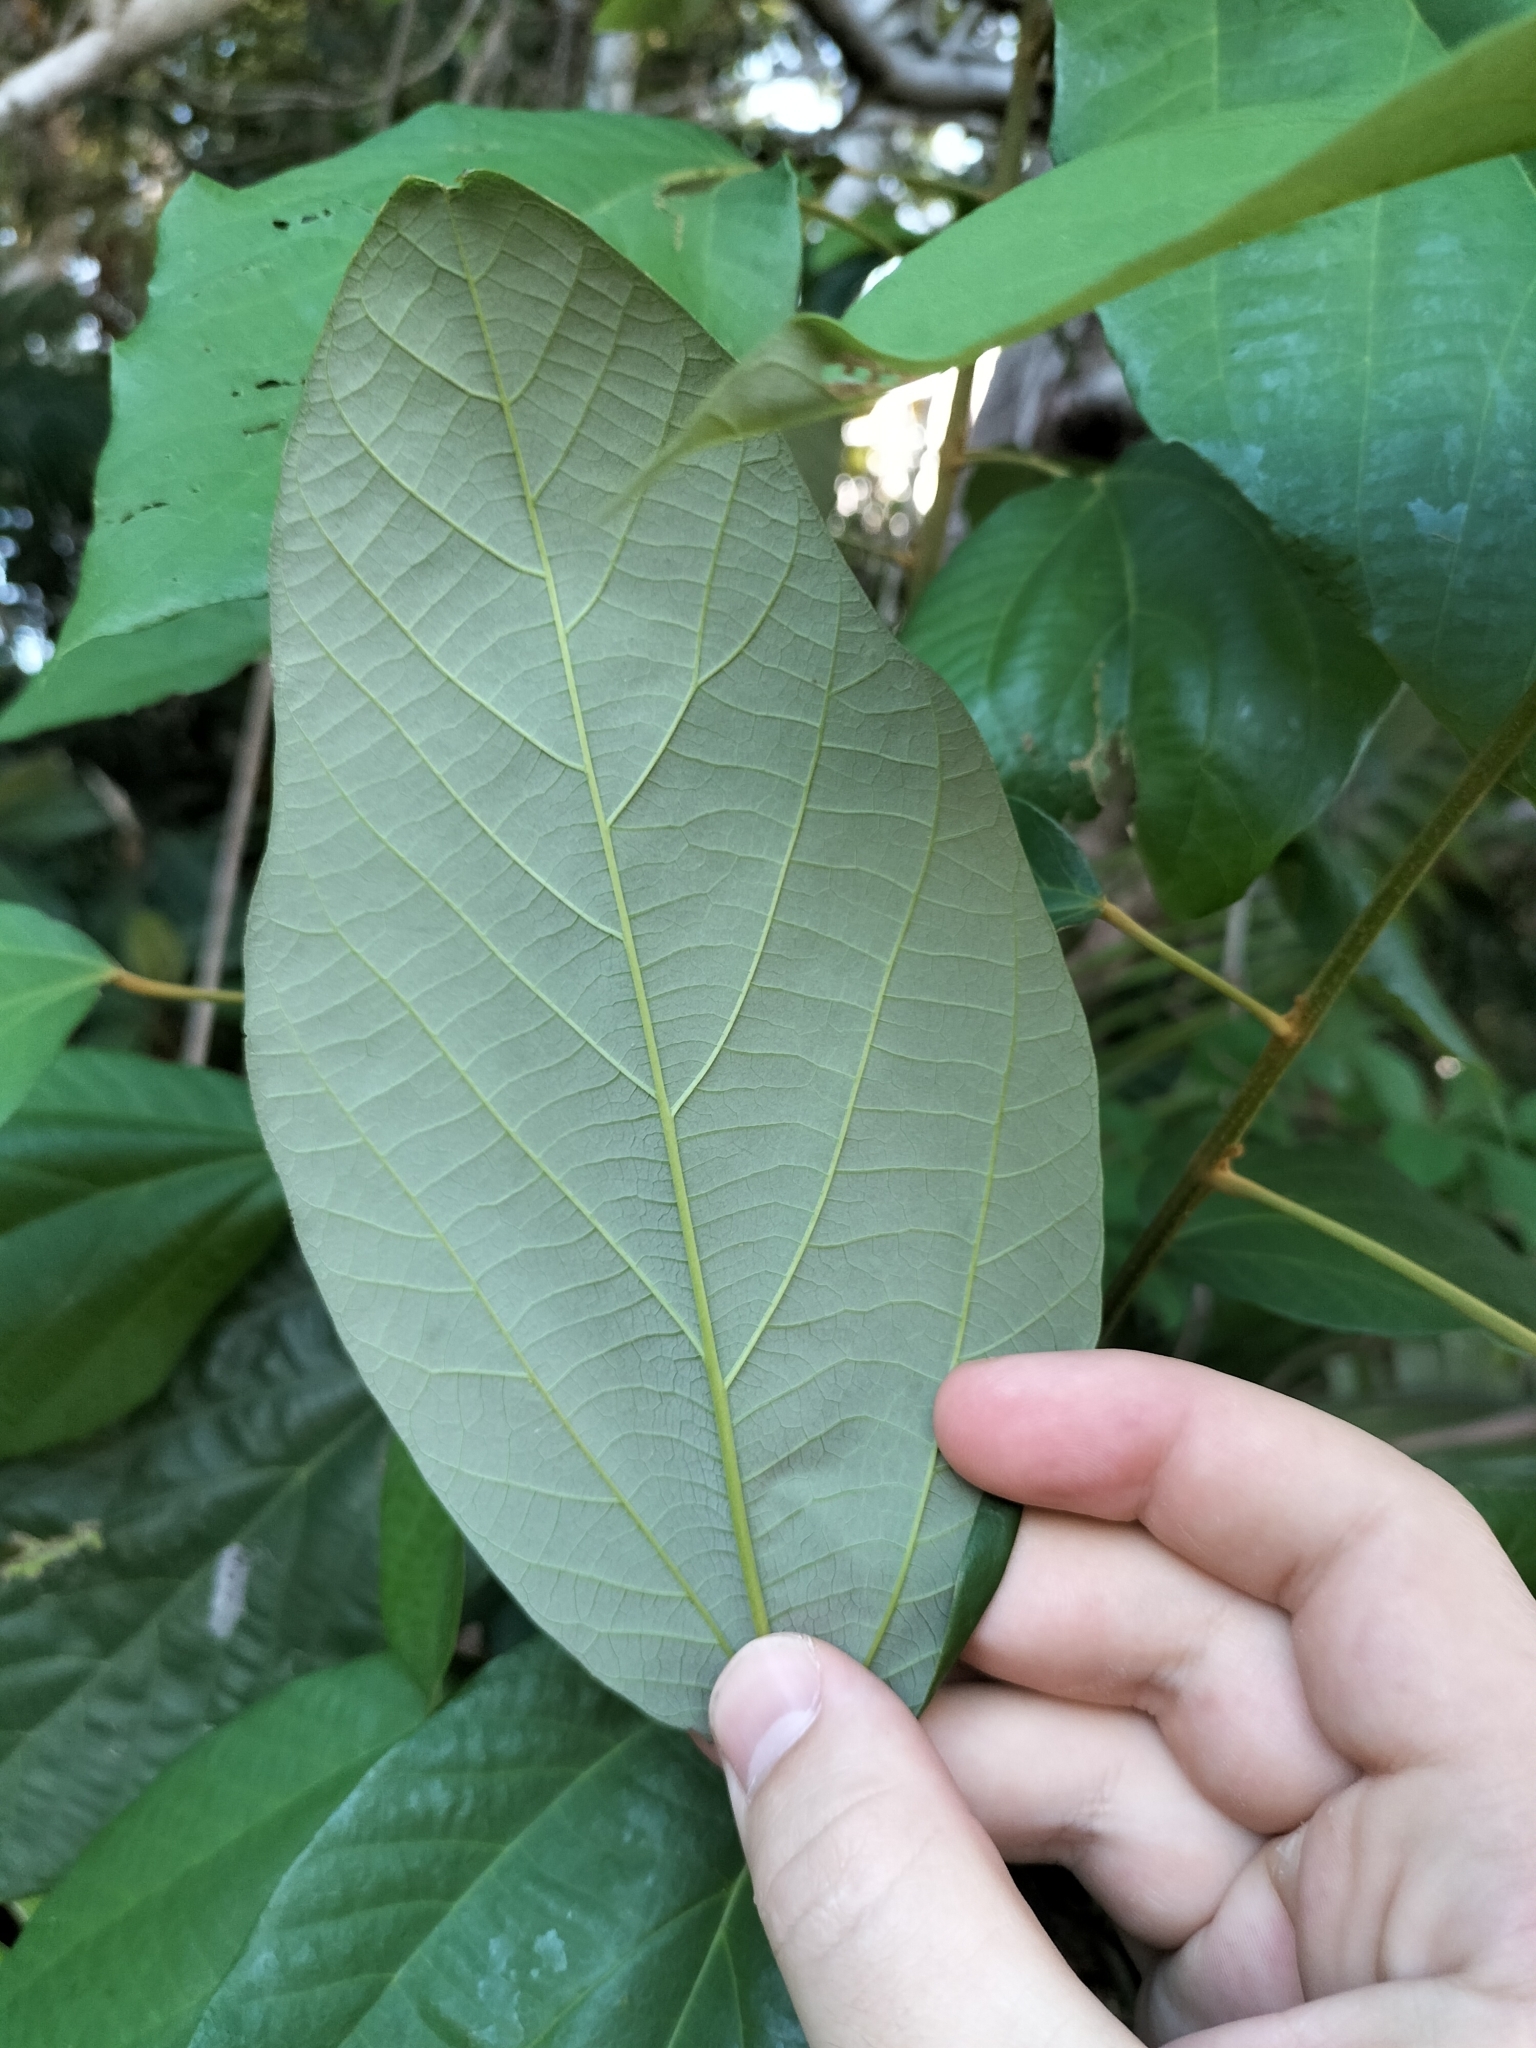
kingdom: Plantae
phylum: Tracheophyta
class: Magnoliopsida
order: Malpighiales
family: Euphorbiaceae
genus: Mallotus
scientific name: Mallotus philippensis
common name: Kamala tree
